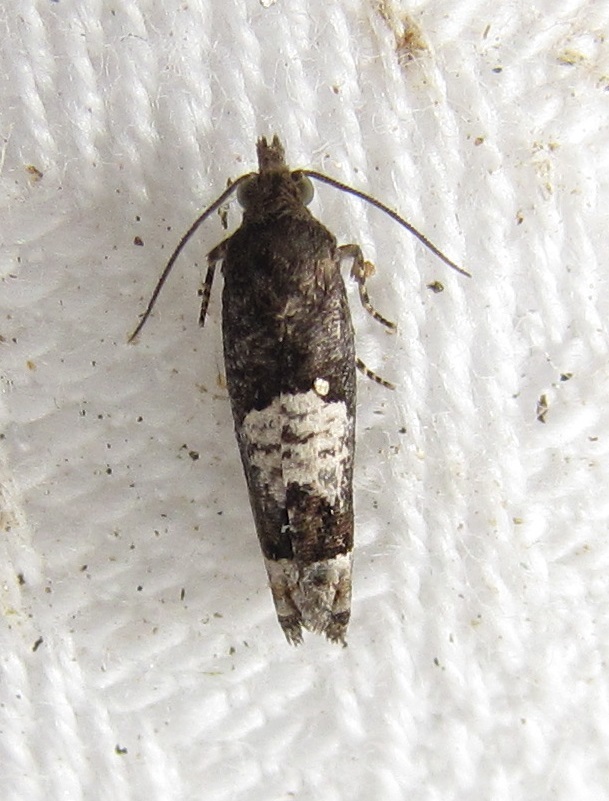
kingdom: Animalia
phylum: Arthropoda
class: Insecta
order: Lepidoptera
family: Tortricidae
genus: Eucosma
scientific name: Eucosma parmatana
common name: Aster eucosma moth
